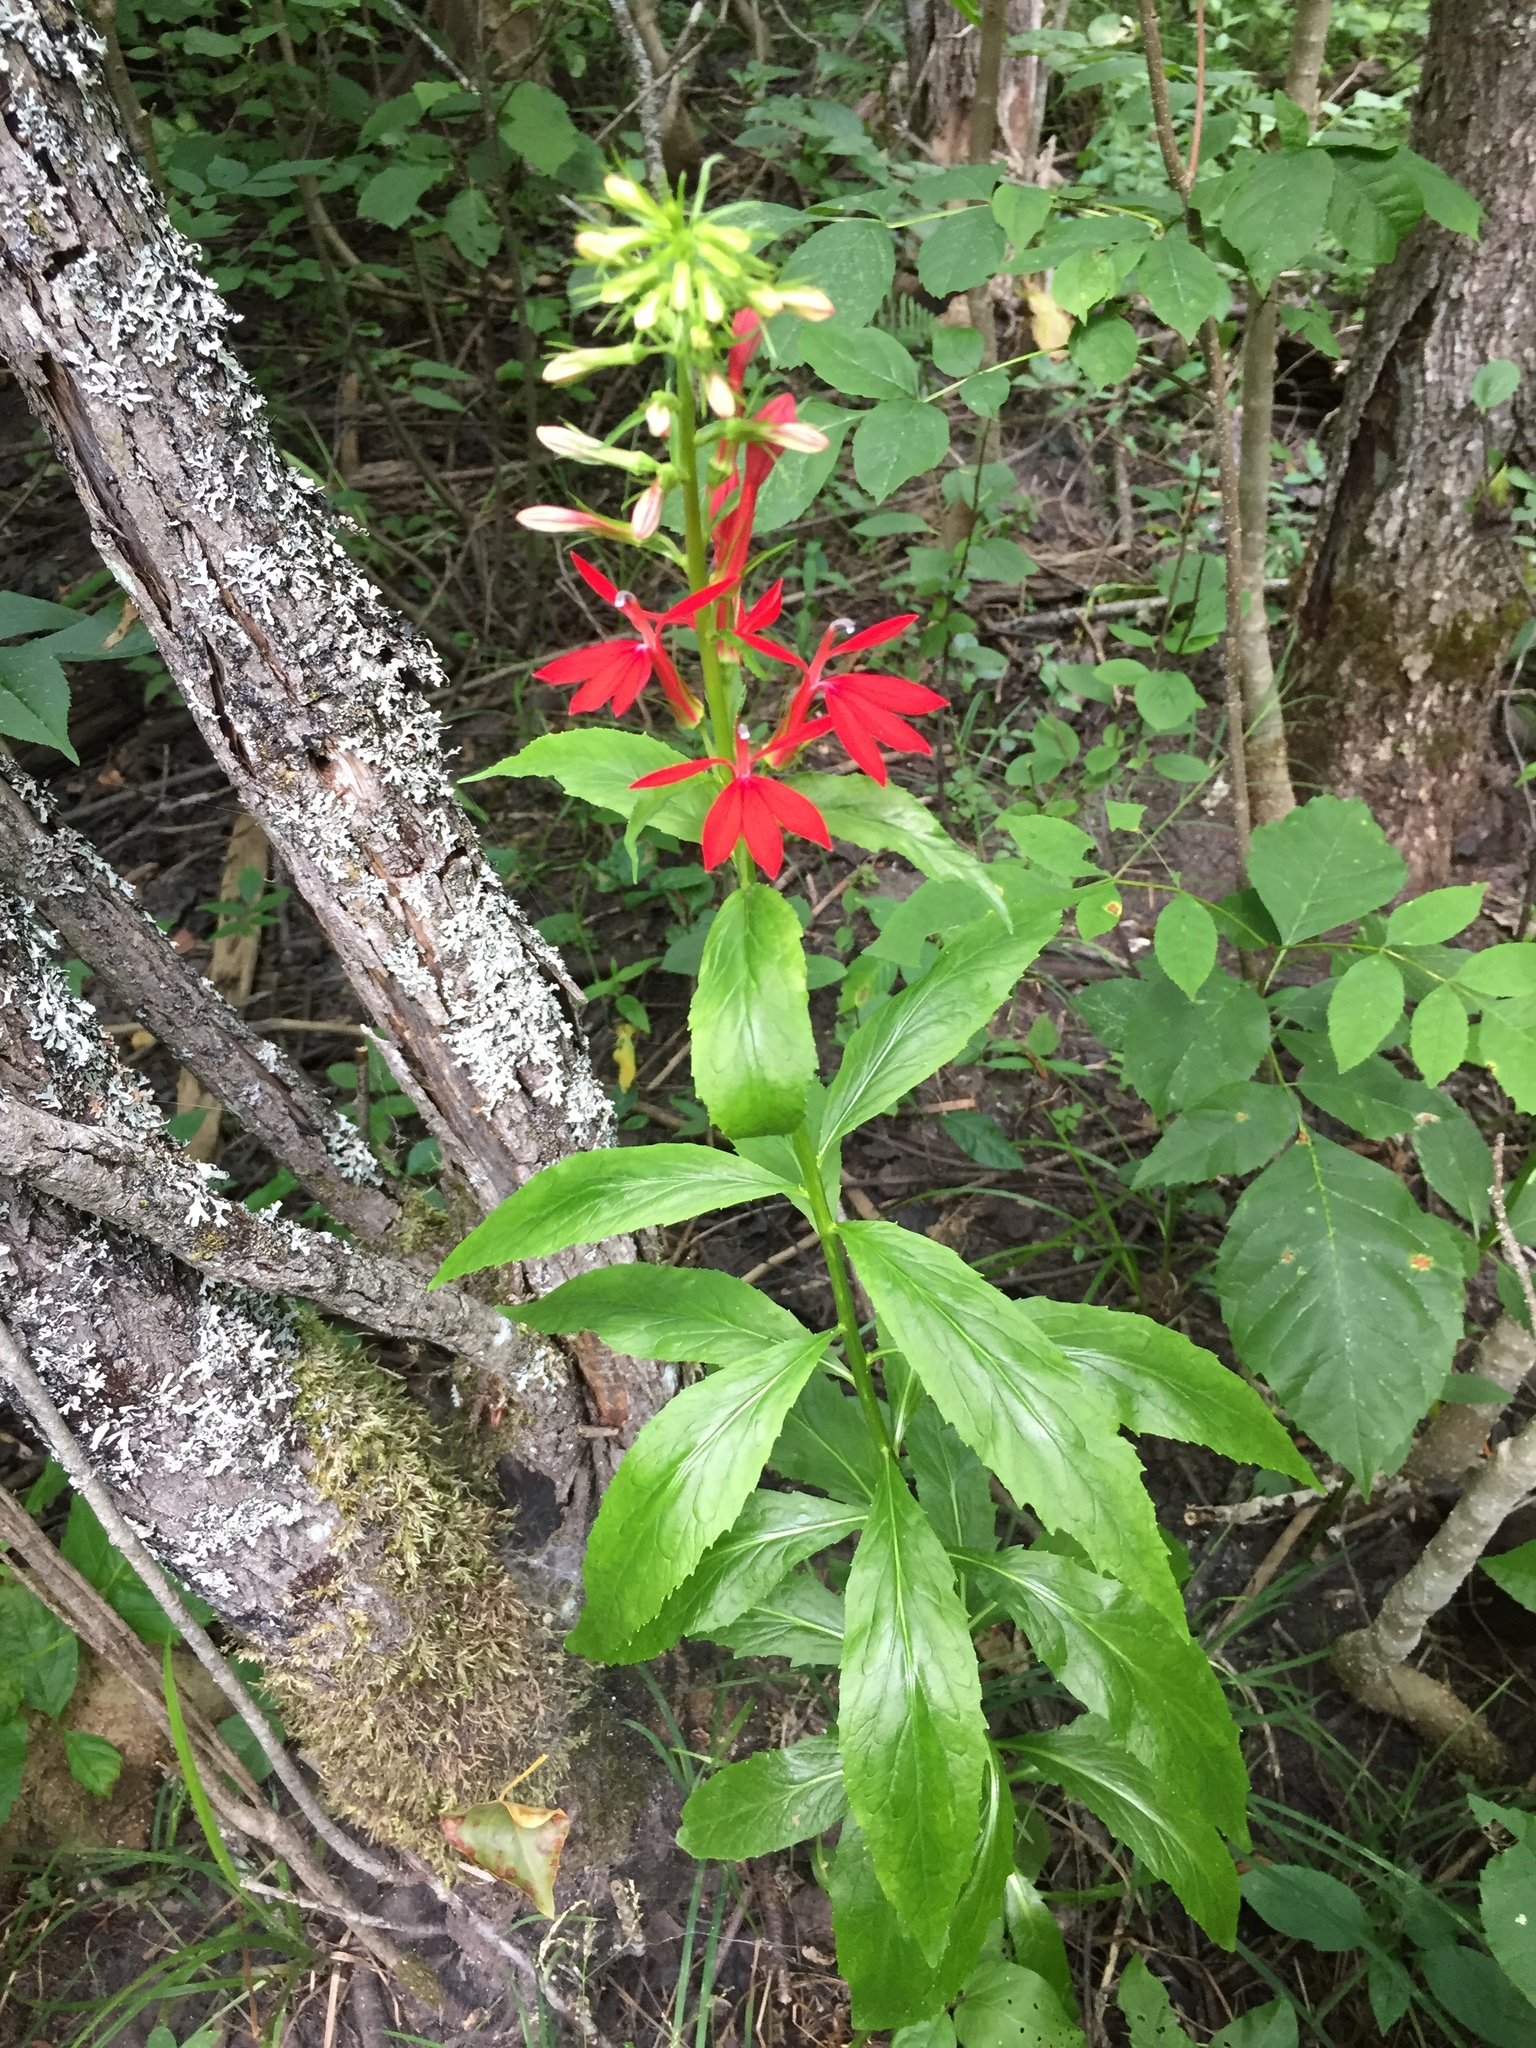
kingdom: Plantae
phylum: Tracheophyta
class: Magnoliopsida
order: Asterales
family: Campanulaceae
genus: Lobelia
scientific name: Lobelia cardinalis
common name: Cardinal flower
